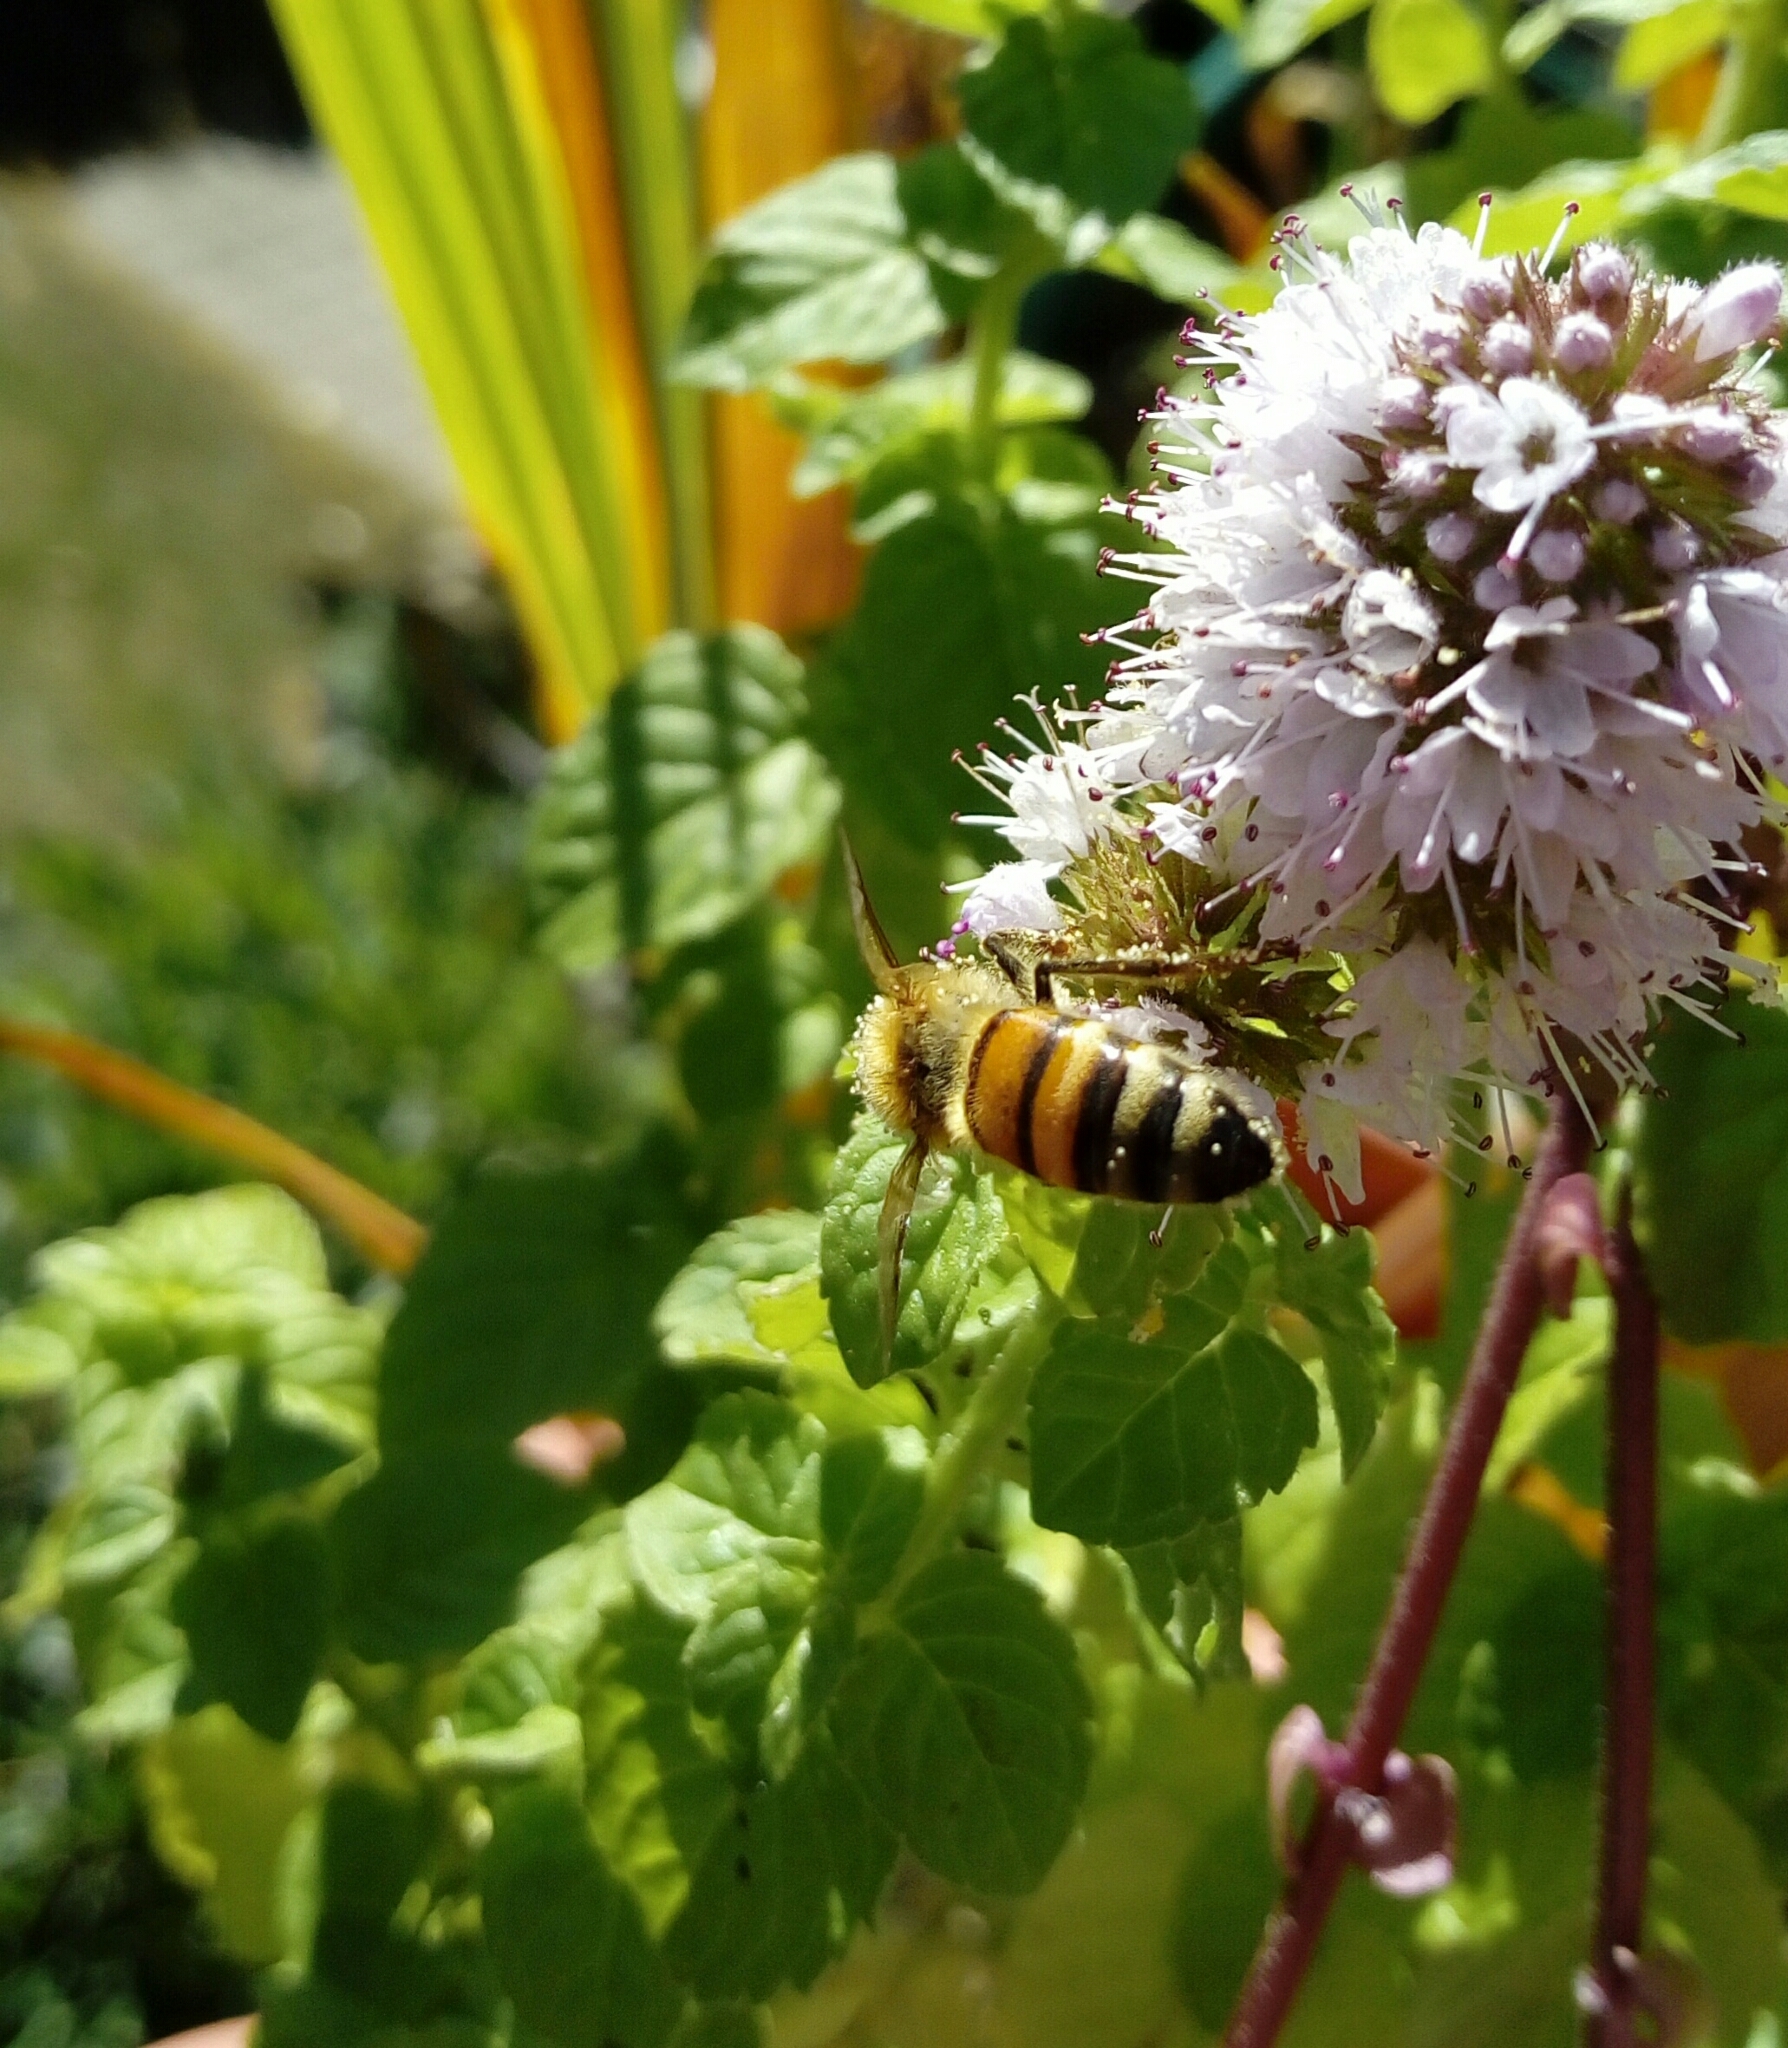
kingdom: Animalia
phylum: Arthropoda
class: Insecta
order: Hymenoptera
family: Apidae
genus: Apis
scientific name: Apis mellifera
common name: Honey bee
